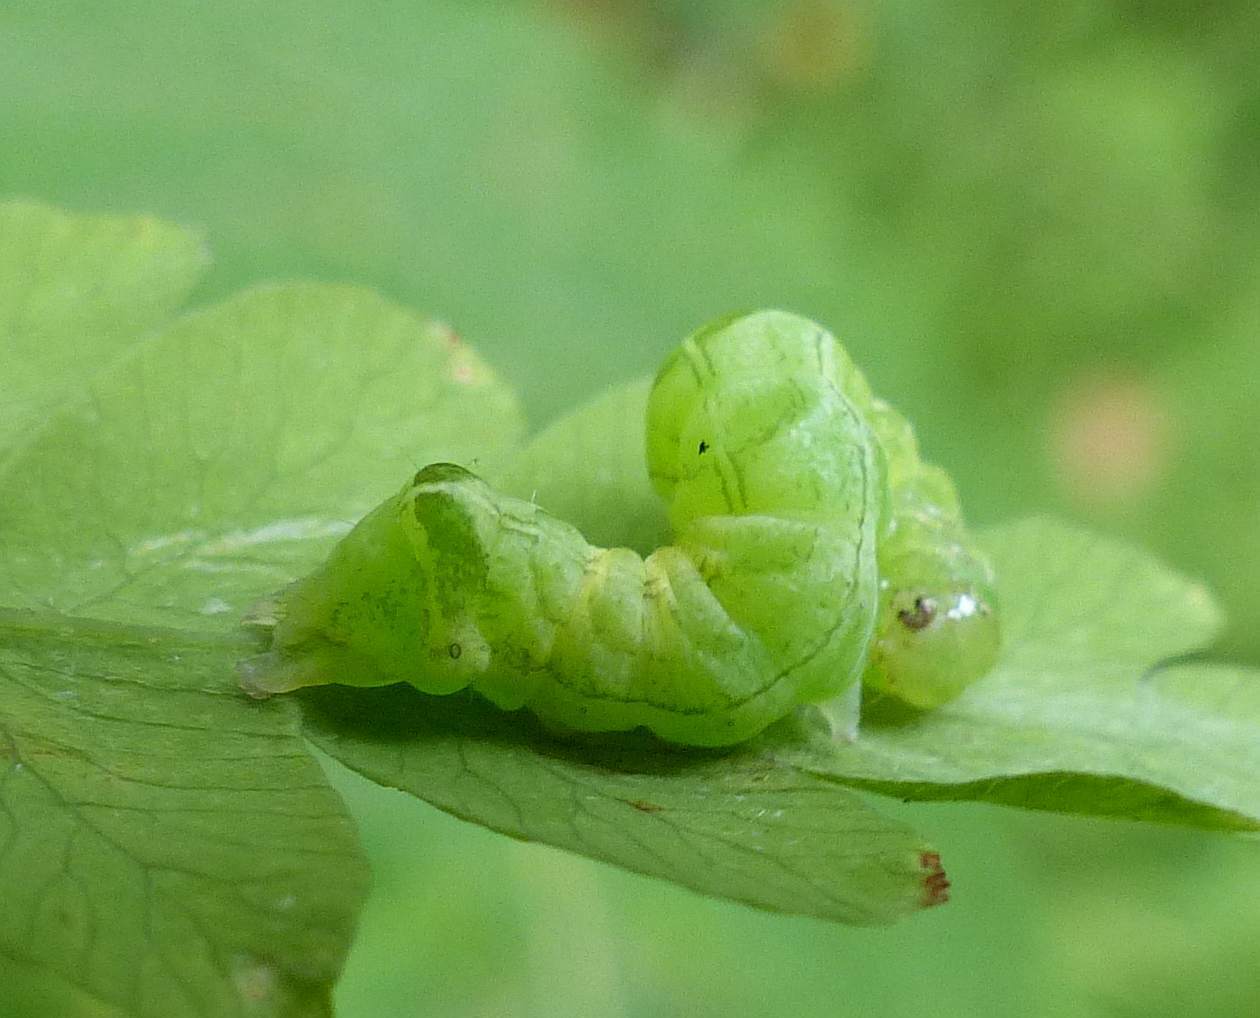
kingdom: Animalia
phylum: Arthropoda
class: Insecta
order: Lepidoptera
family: Noctuidae
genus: Melanchra
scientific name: Melanchra adjuncta
